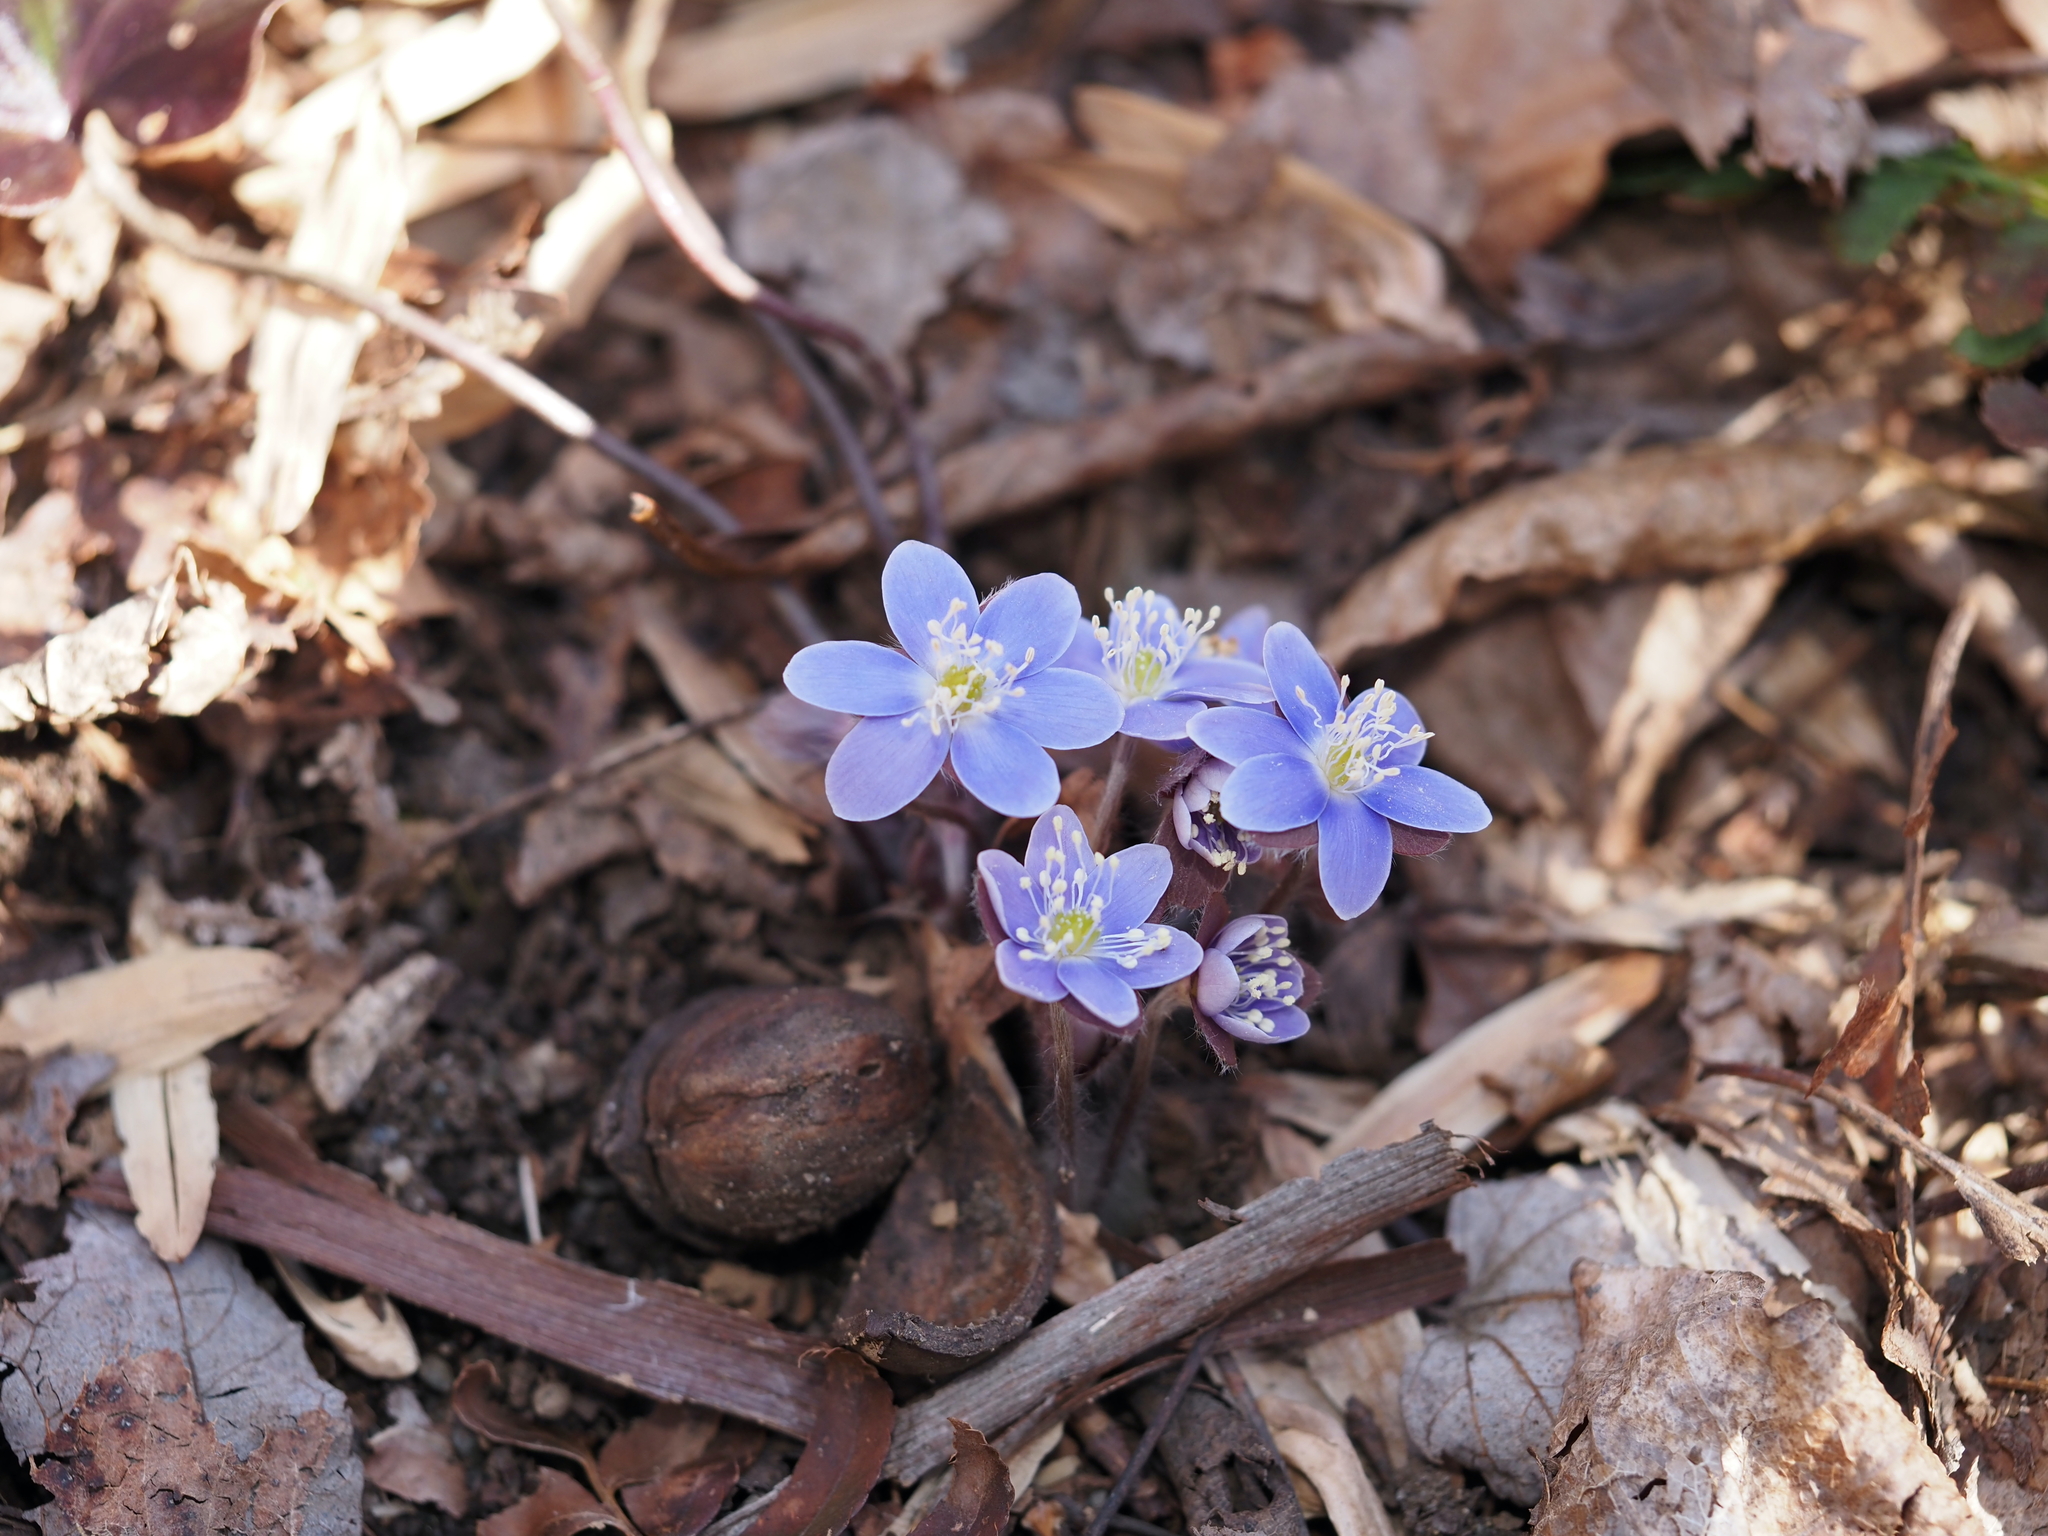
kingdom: Plantae
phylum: Tracheophyta
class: Magnoliopsida
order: Ranunculales
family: Ranunculaceae
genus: Hepatica
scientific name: Hepatica americana
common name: American hepatica
